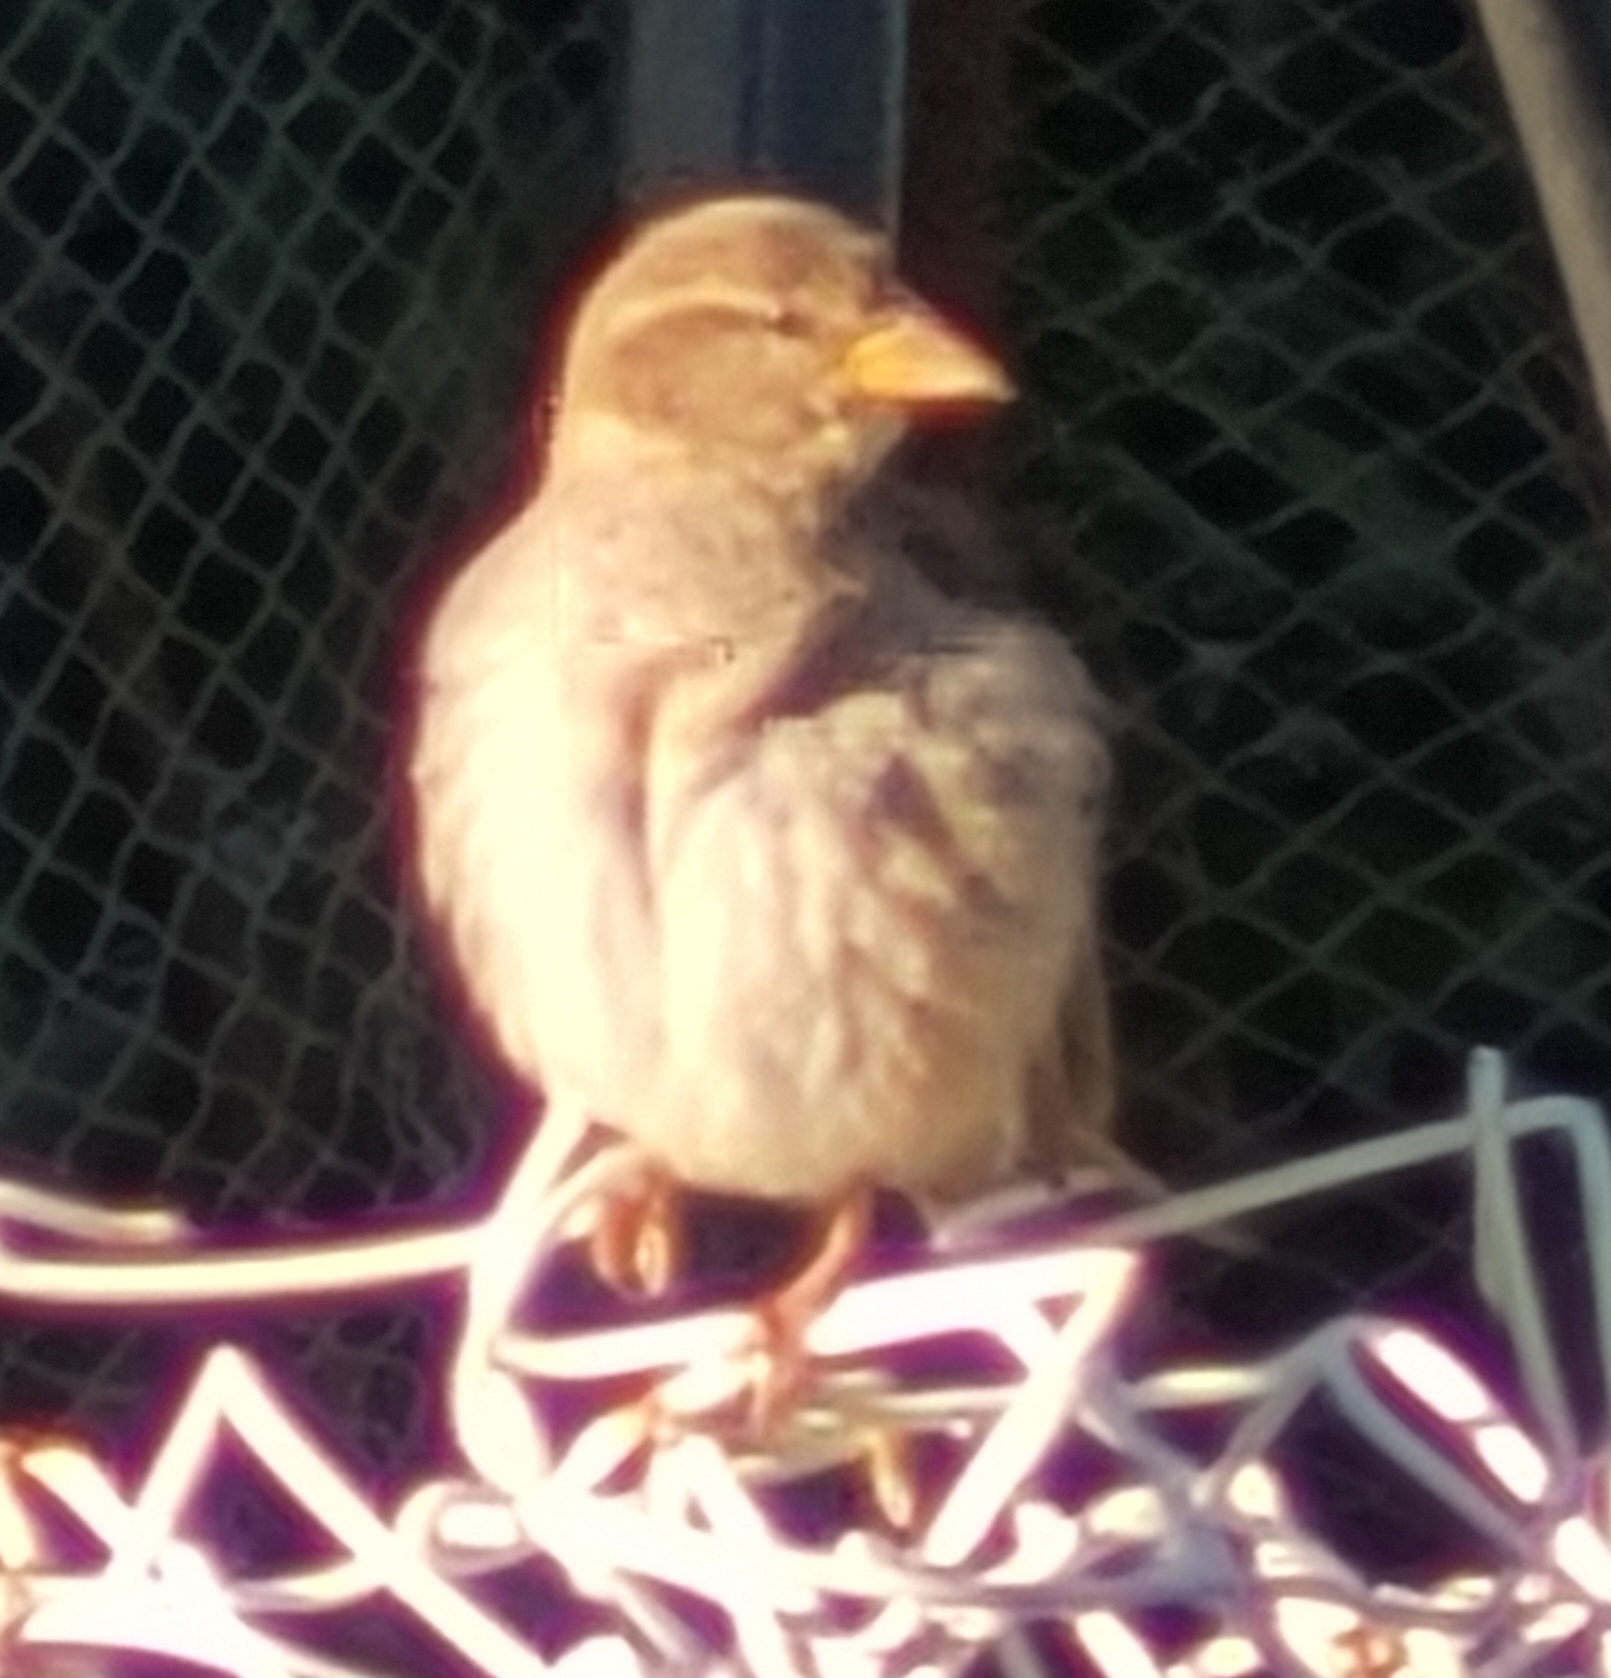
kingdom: Animalia
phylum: Chordata
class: Aves
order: Passeriformes
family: Passeridae
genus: Passer
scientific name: Passer domesticus
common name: House sparrow
